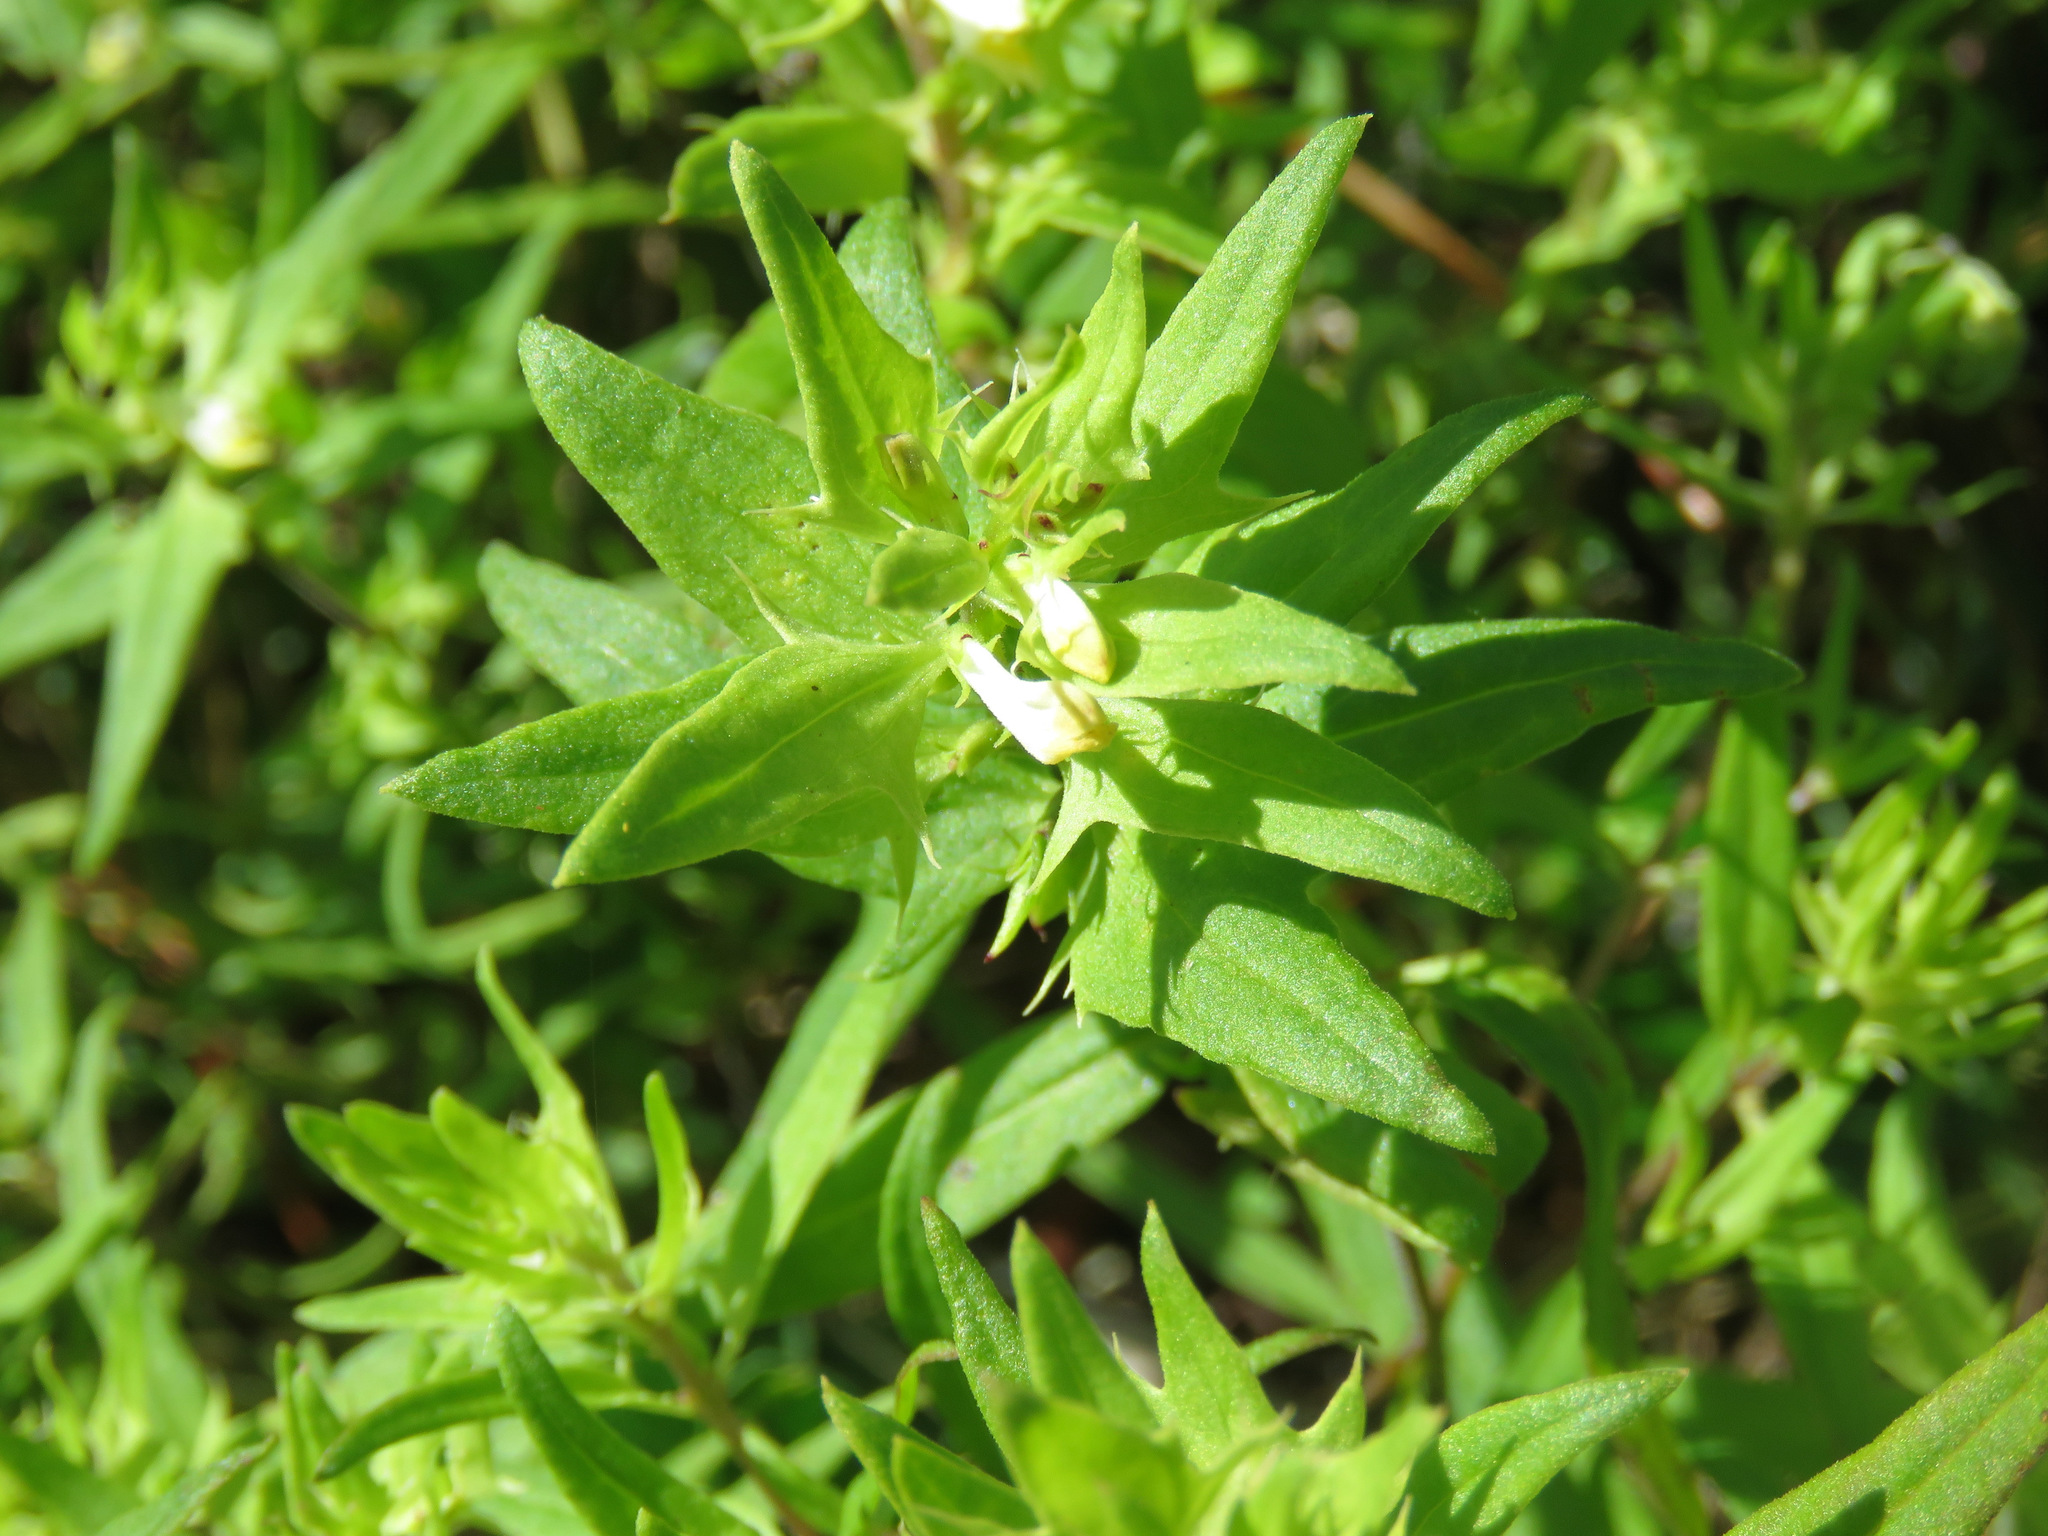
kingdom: Plantae
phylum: Tracheophyta
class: Magnoliopsida
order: Lamiales
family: Orobanchaceae
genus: Melampyrum
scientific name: Melampyrum lineare
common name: American cow-wheat
